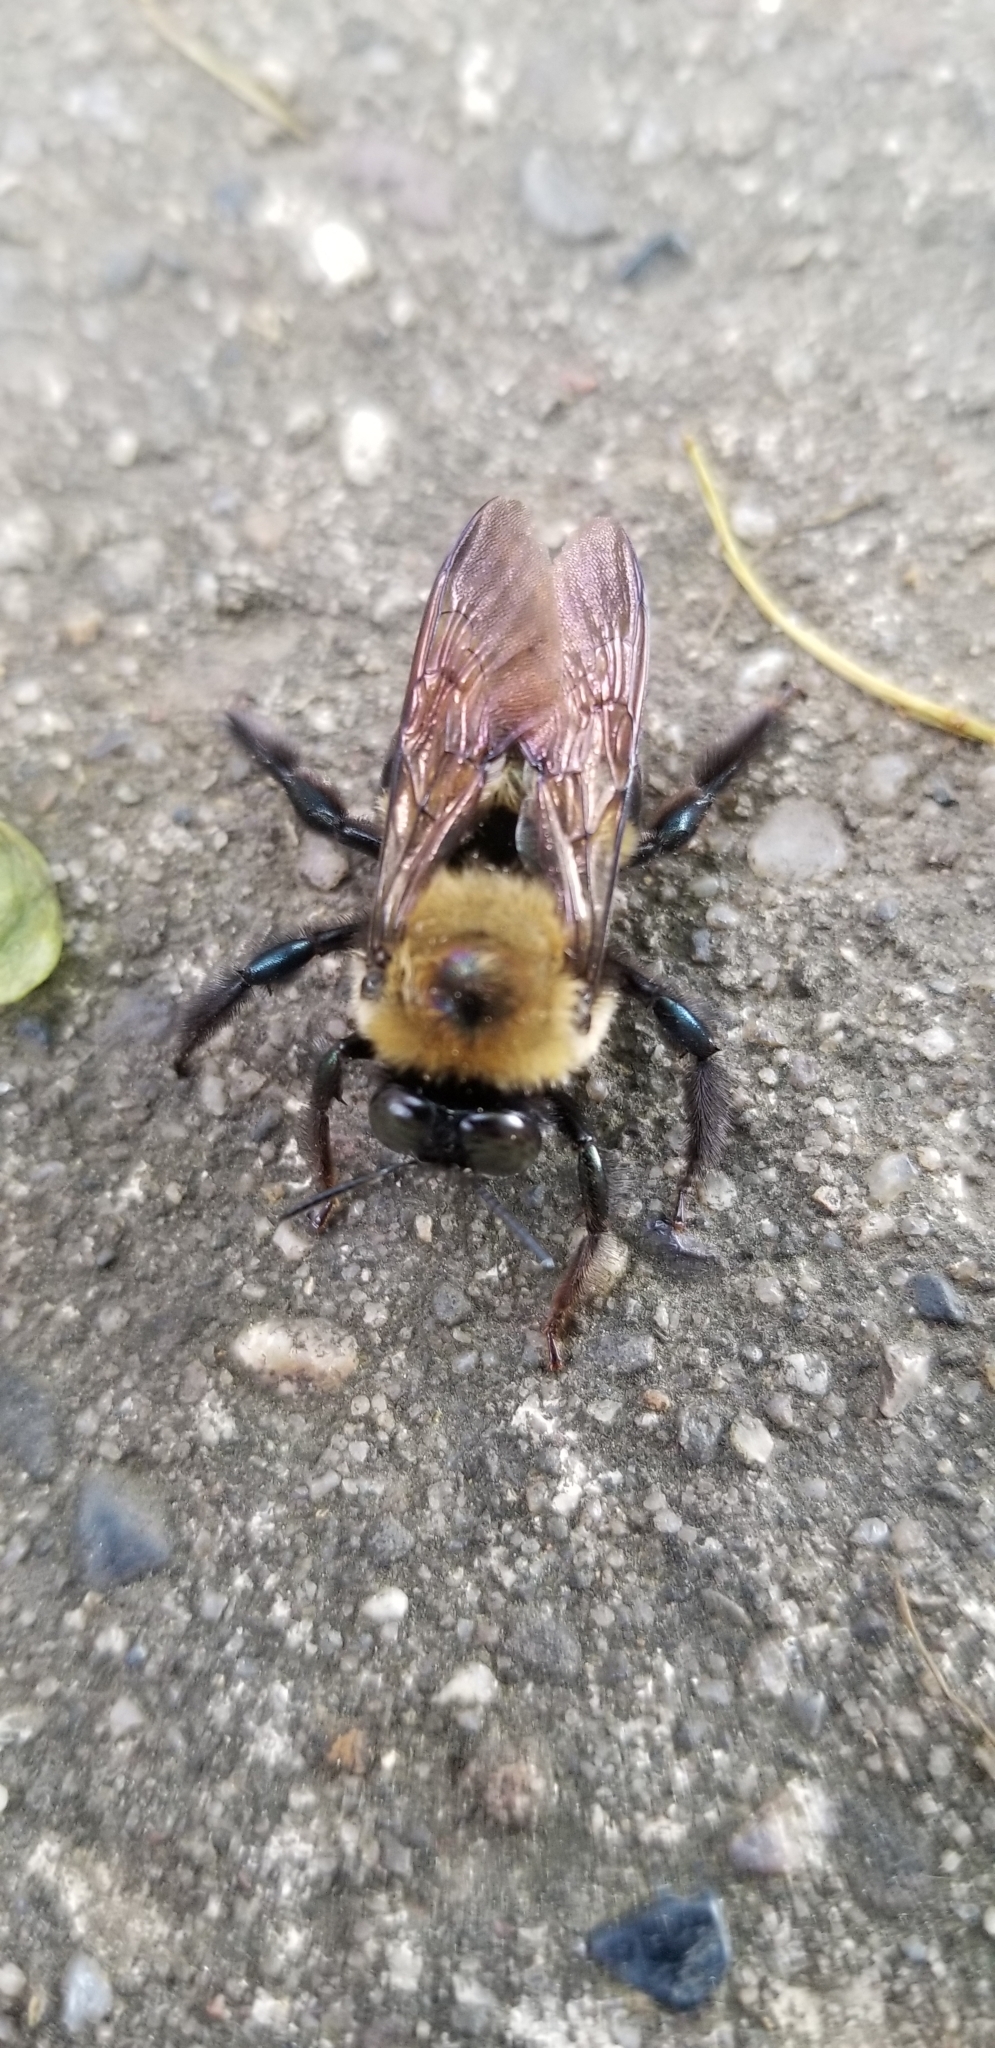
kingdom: Animalia
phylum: Arthropoda
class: Insecta
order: Hymenoptera
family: Apidae
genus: Xylocopa
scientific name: Xylocopa virginica
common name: Carpenter bee
